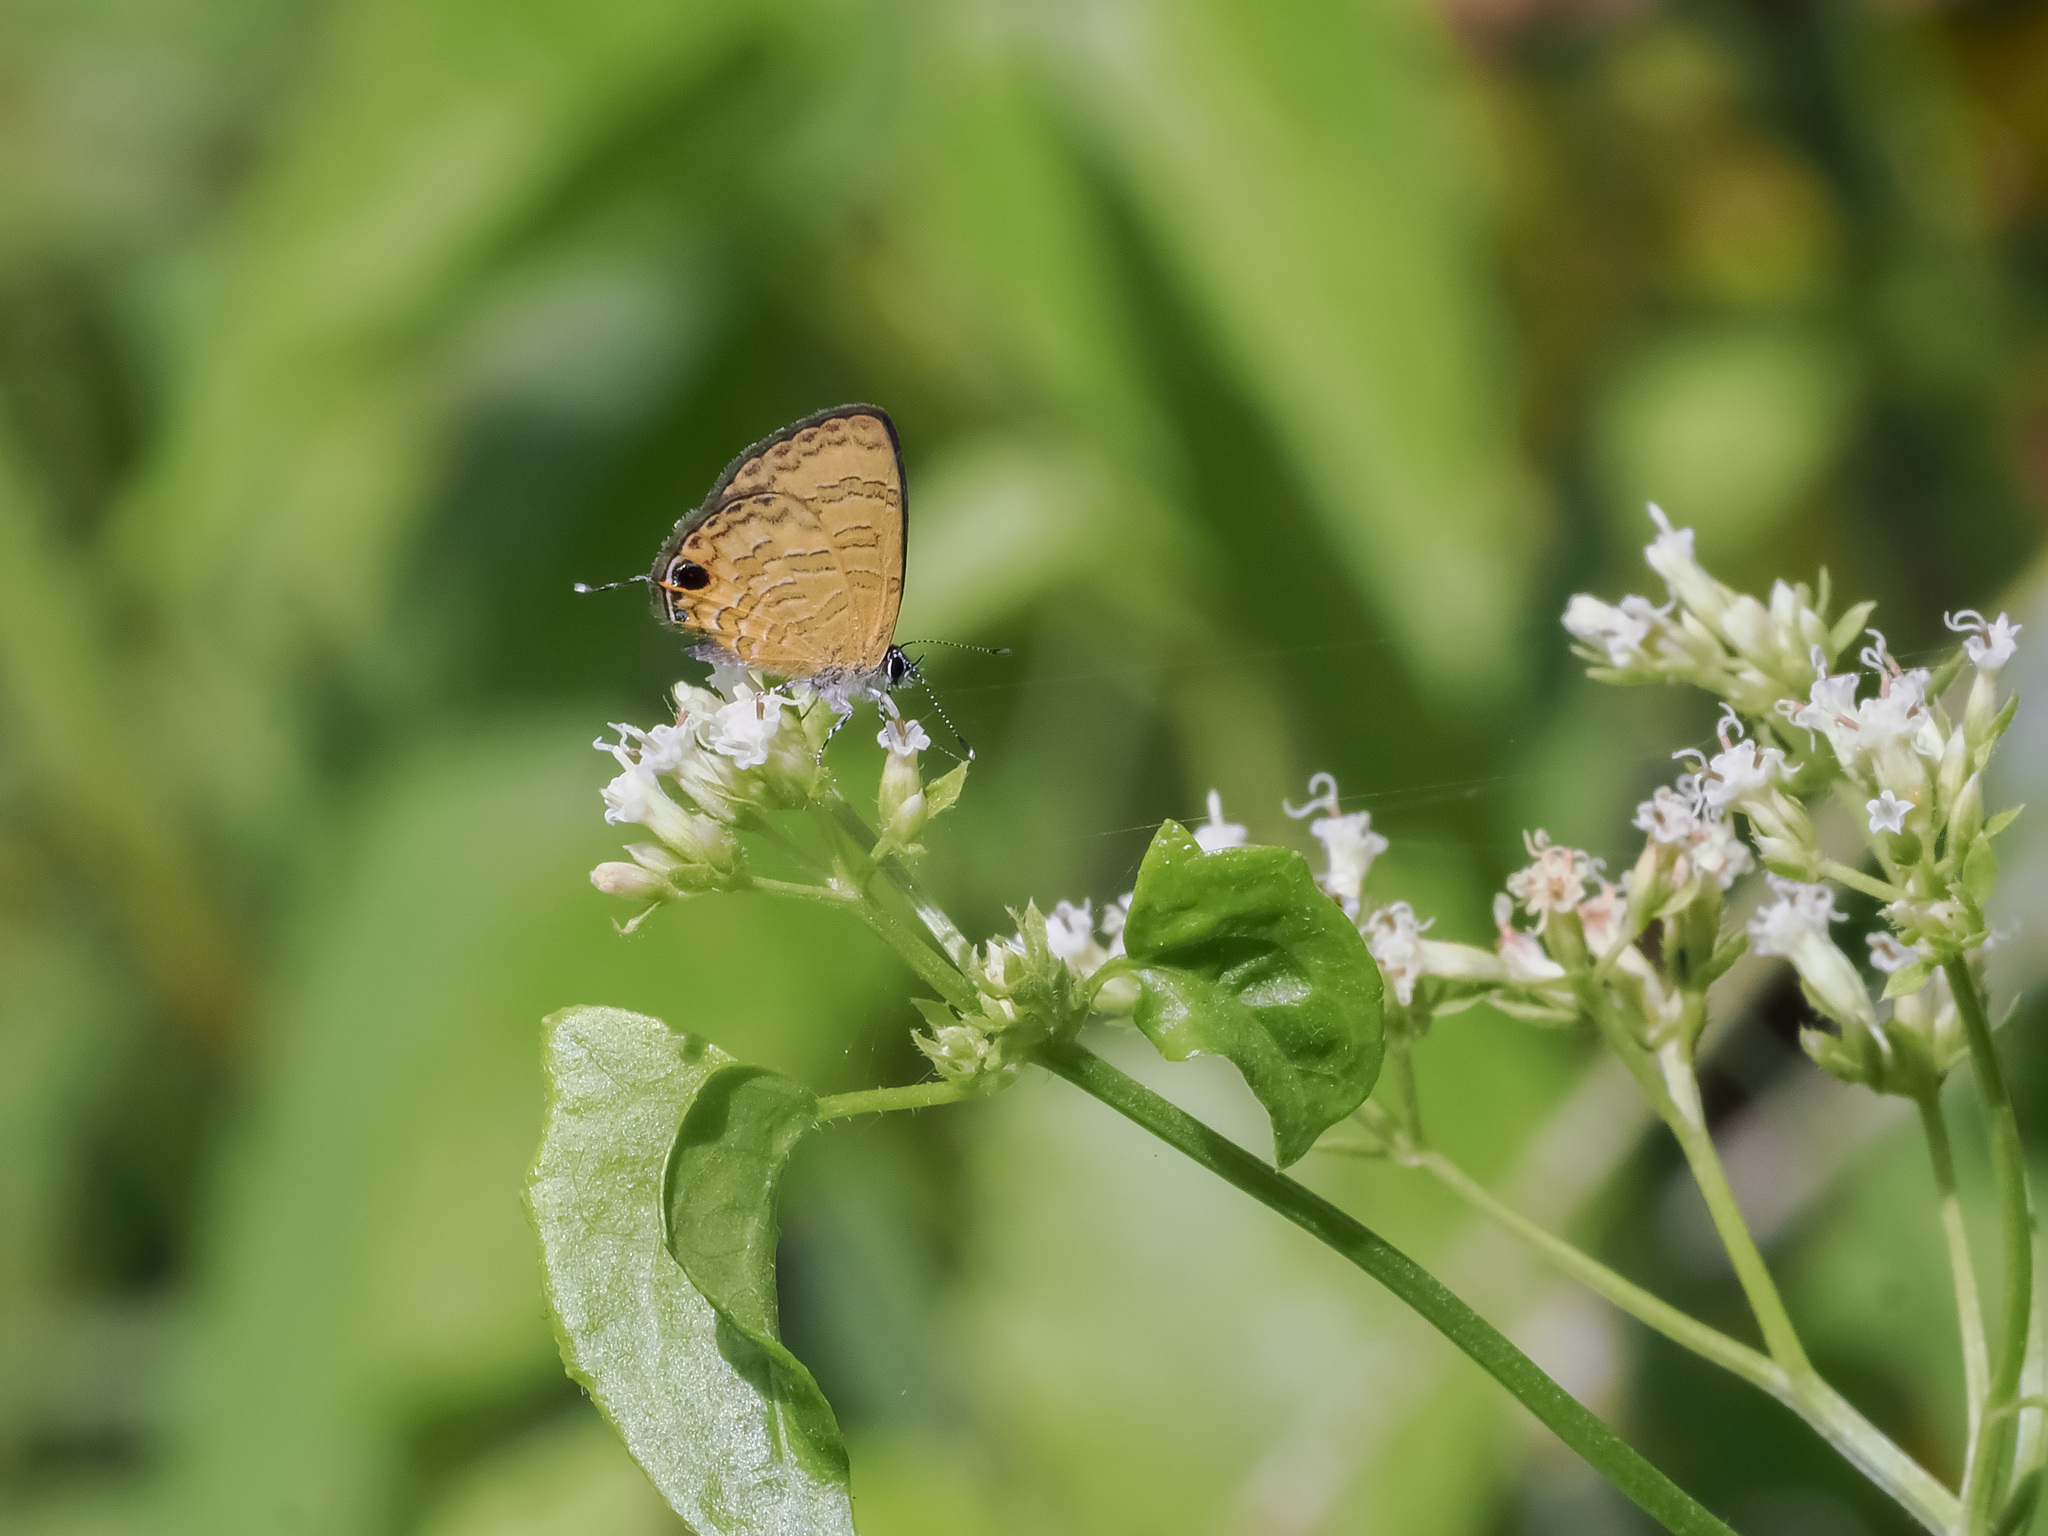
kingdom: Animalia
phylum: Arthropoda
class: Insecta
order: Lepidoptera
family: Lycaenidae
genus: Prosotas
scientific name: Prosotas nora
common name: Common line blue
